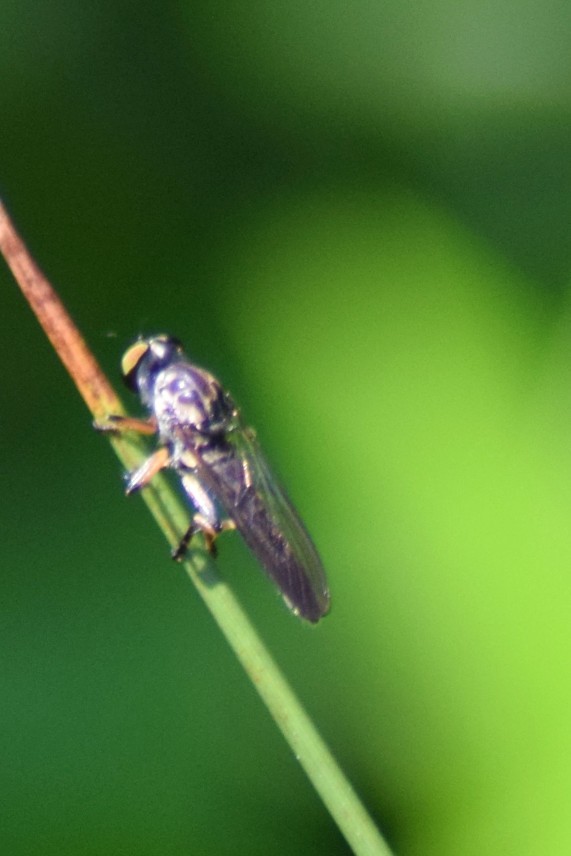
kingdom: Animalia
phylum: Arthropoda
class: Insecta
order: Diptera
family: Asilidae
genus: Ommatius
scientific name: Ommatius
